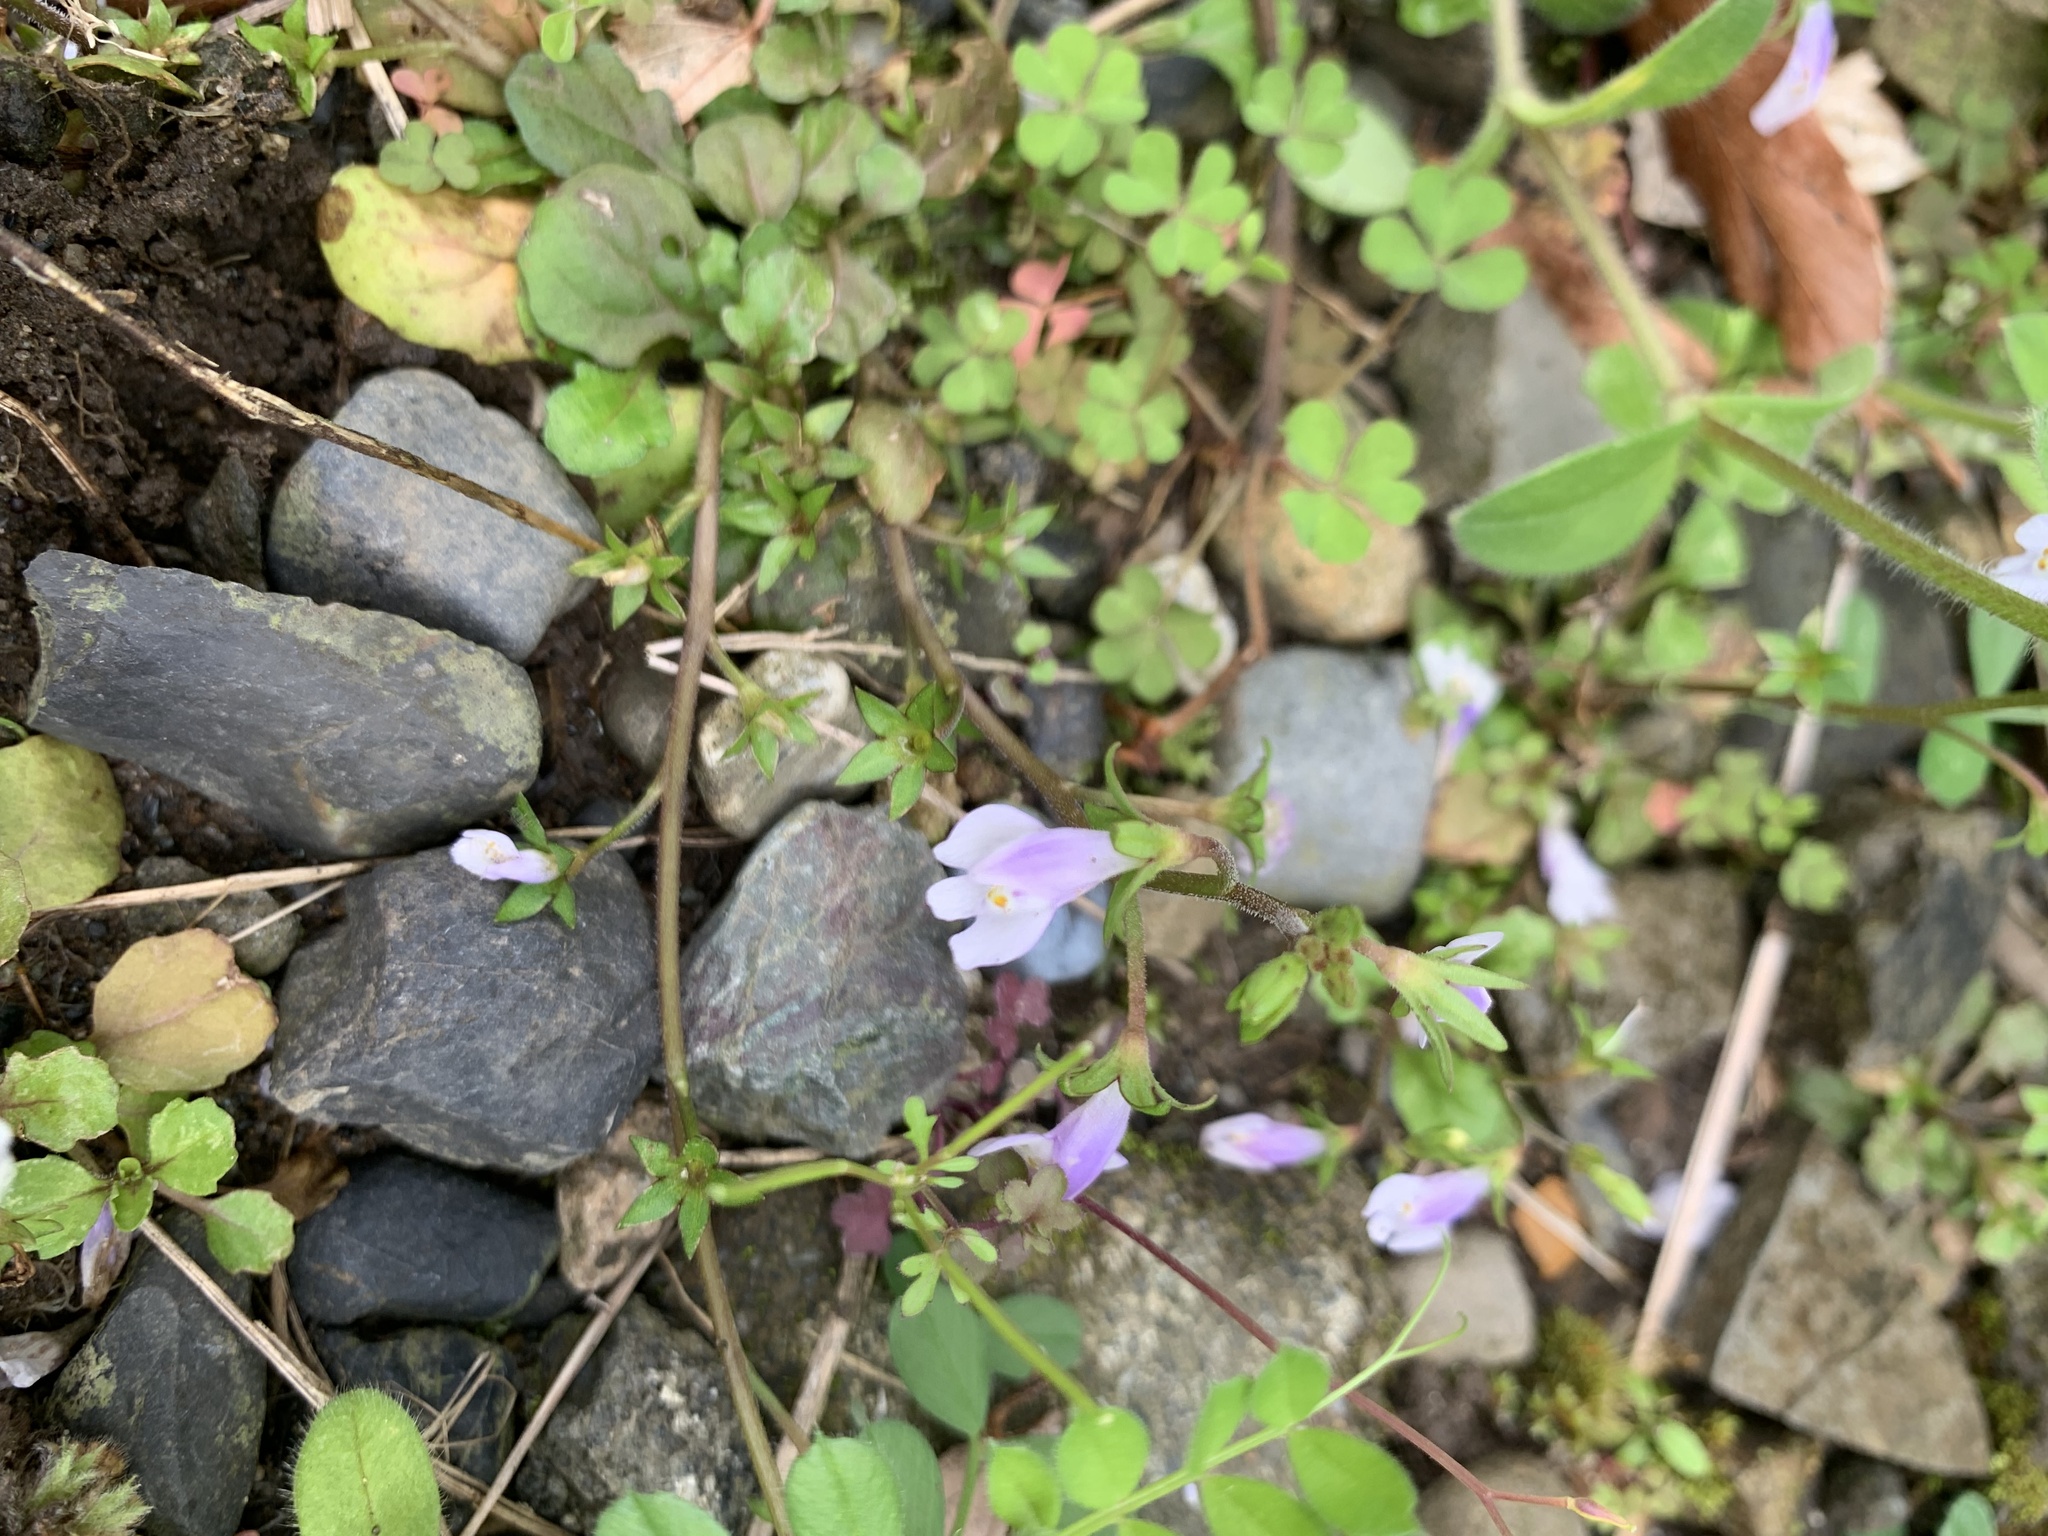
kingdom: Plantae
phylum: Tracheophyta
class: Magnoliopsida
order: Lamiales
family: Mazaceae
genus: Mazus
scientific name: Mazus pumilus
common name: Japanese mazus
